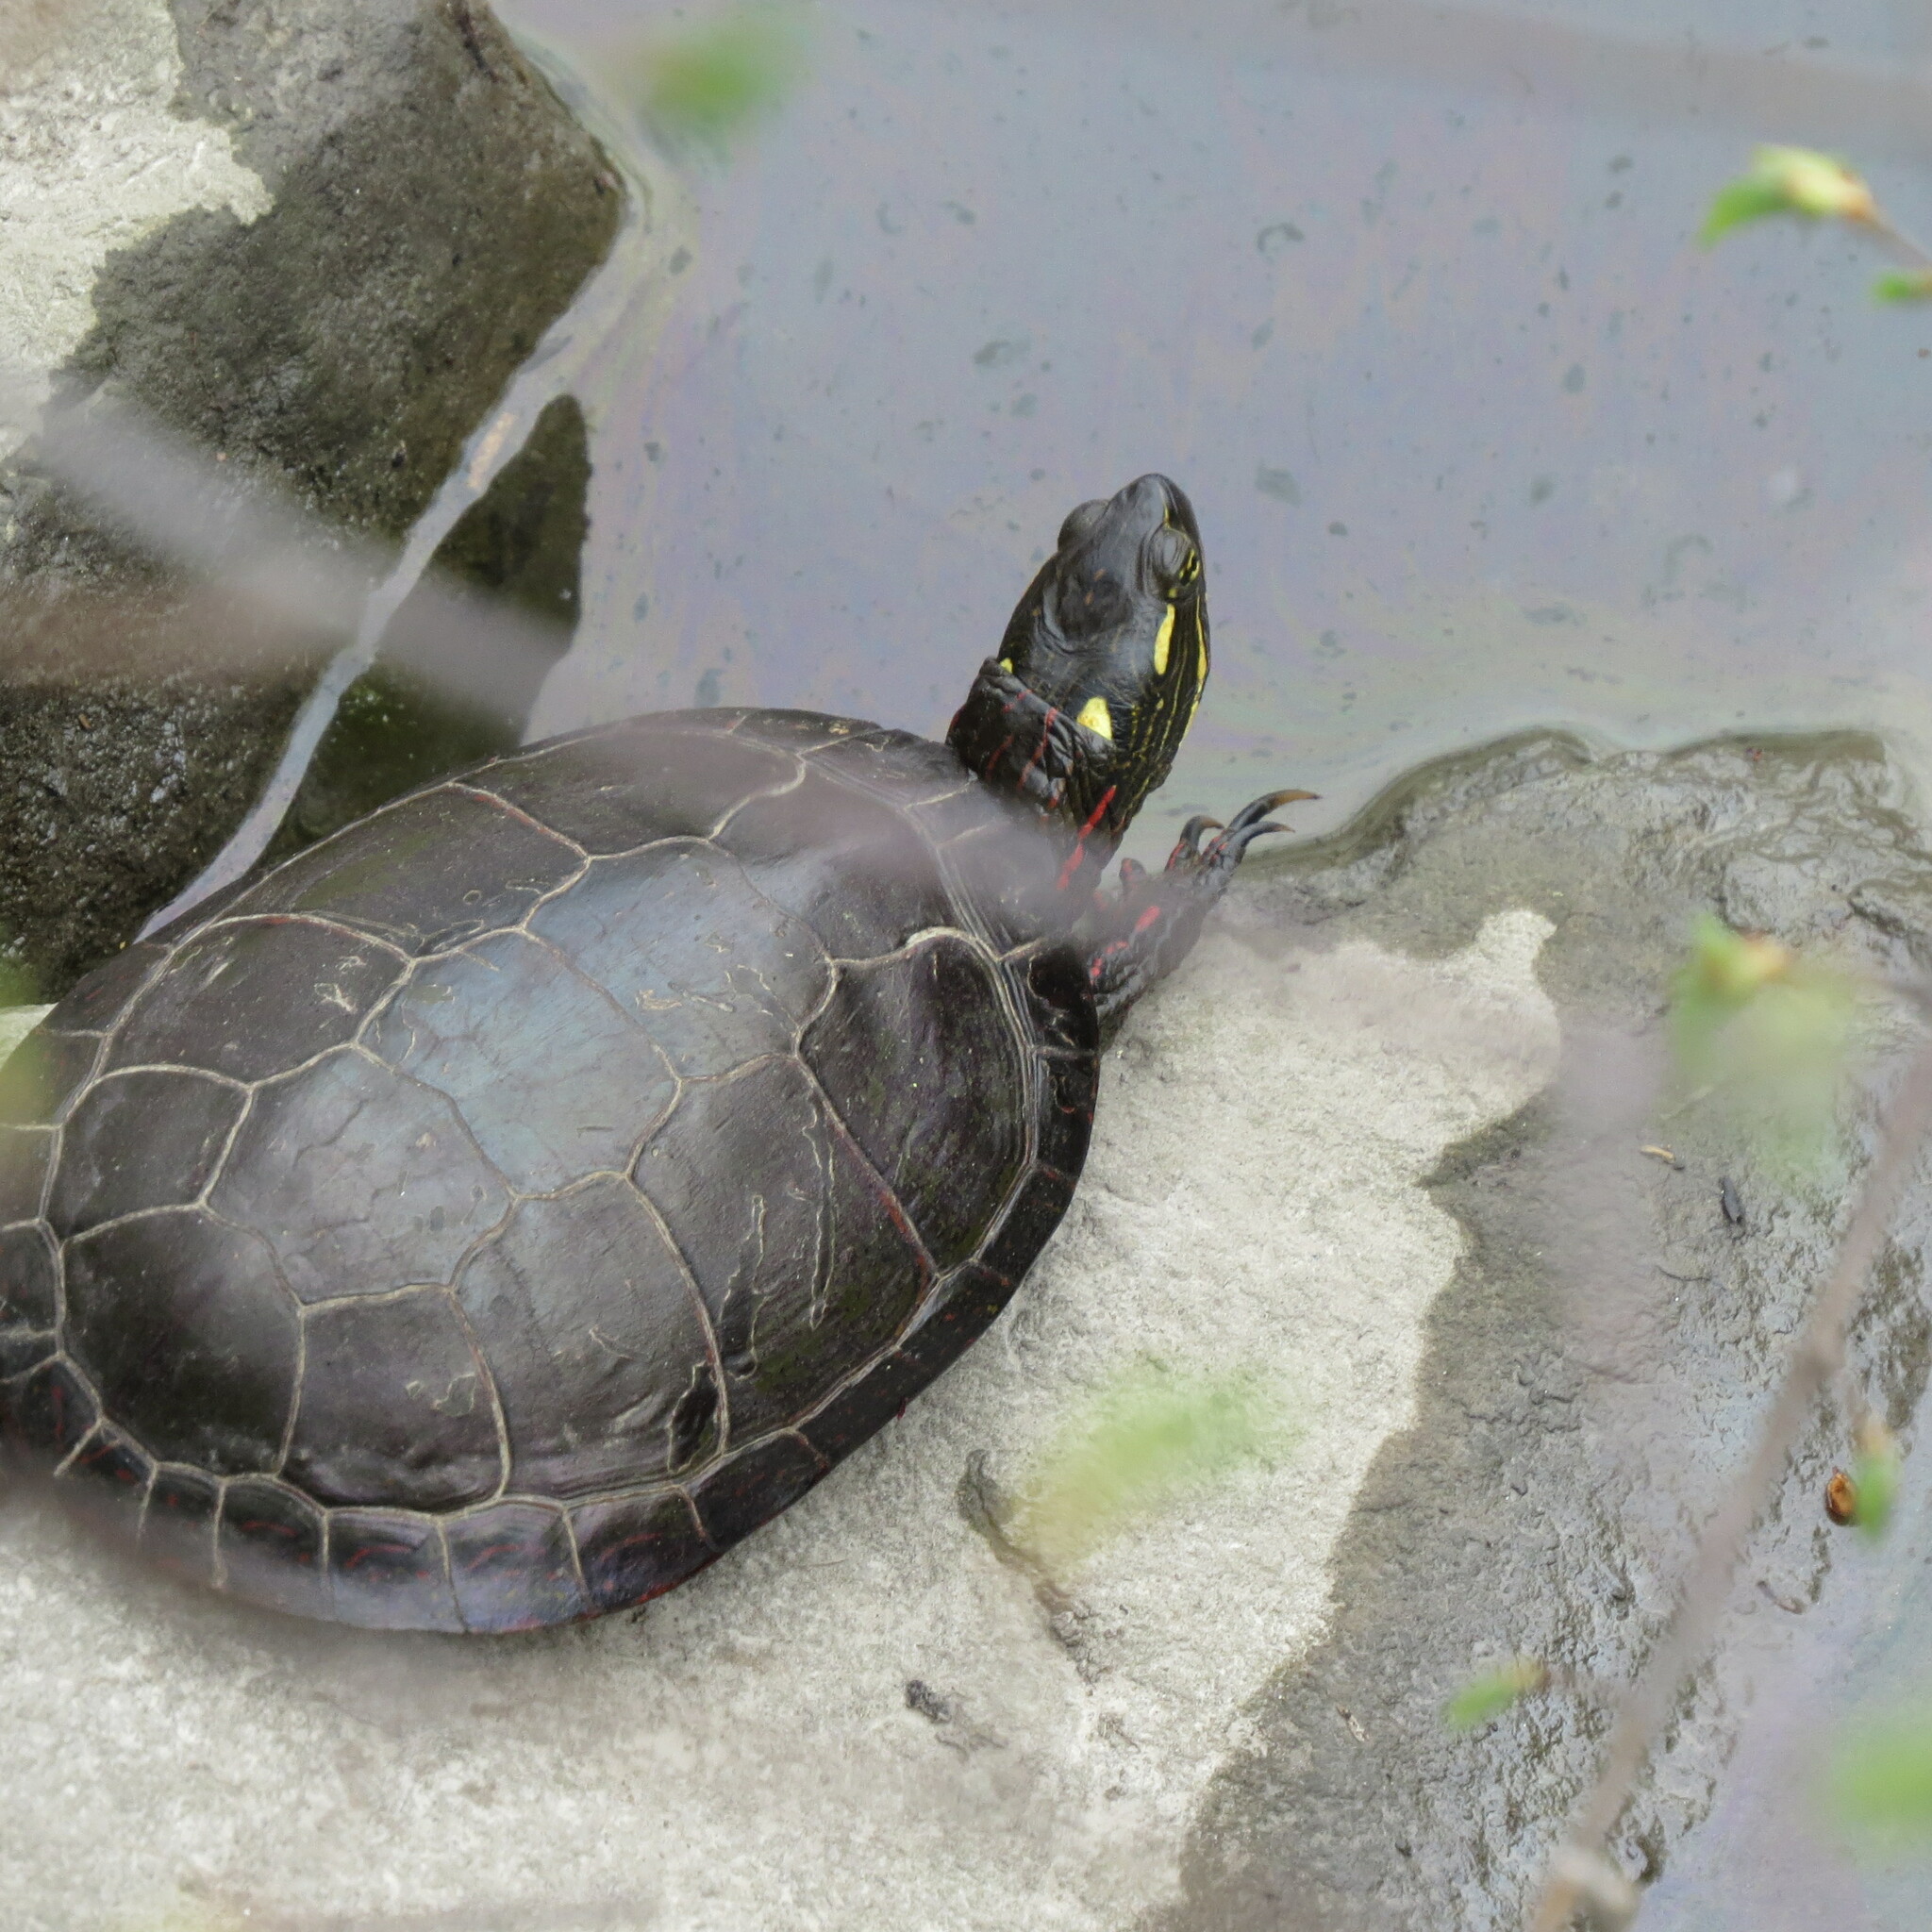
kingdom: Animalia
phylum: Chordata
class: Testudines
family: Emydidae
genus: Chrysemys
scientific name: Chrysemys picta
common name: Painted turtle
